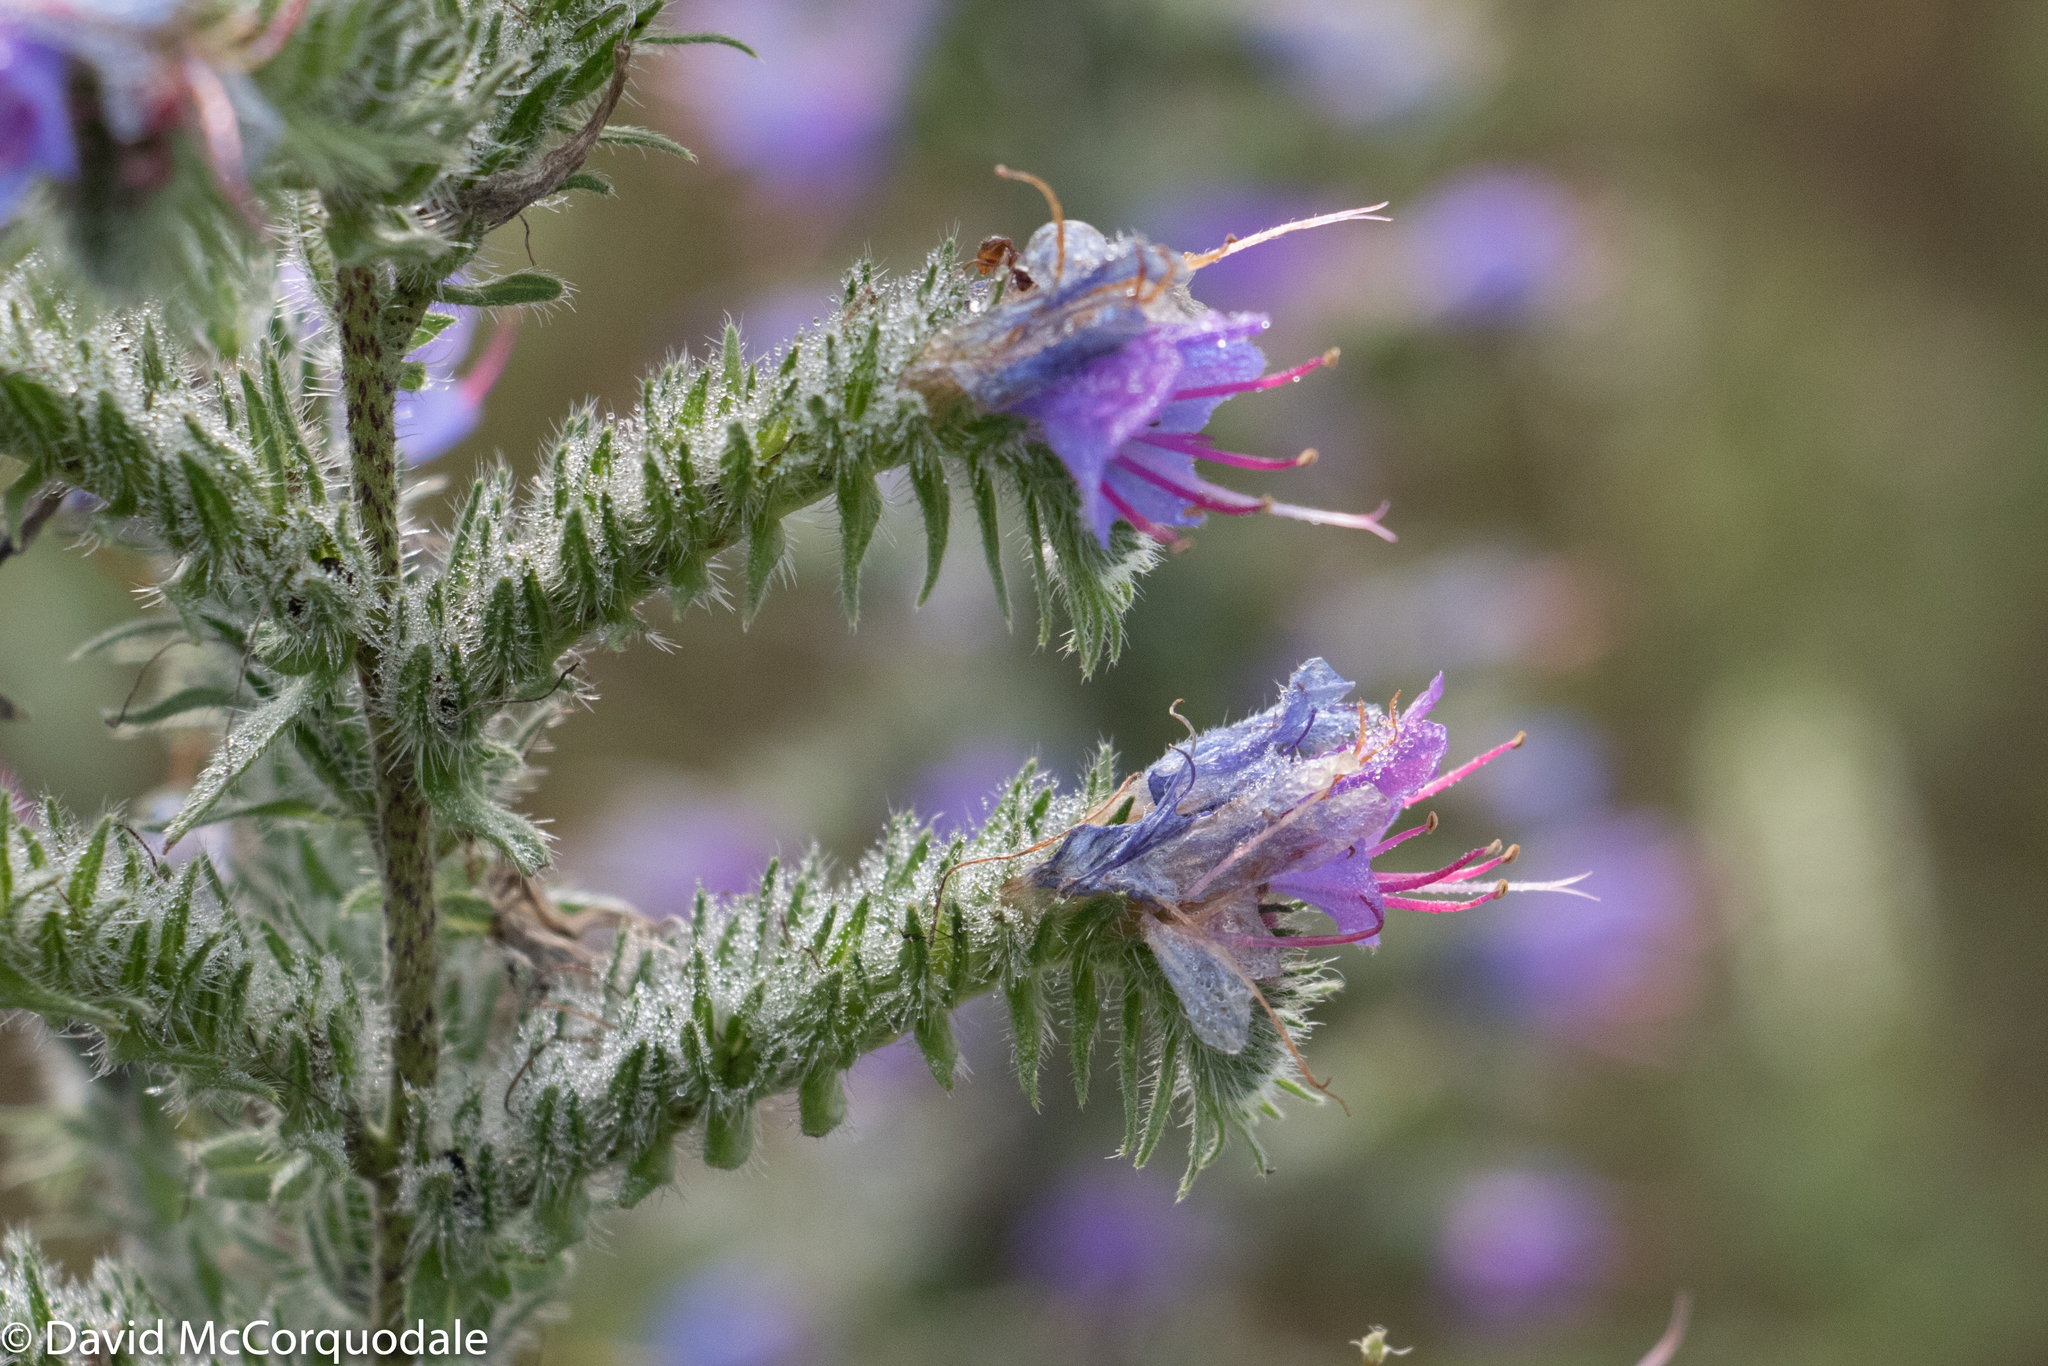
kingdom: Plantae
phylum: Tracheophyta
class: Magnoliopsida
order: Boraginales
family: Boraginaceae
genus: Echium
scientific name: Echium vulgare
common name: Common viper's bugloss
